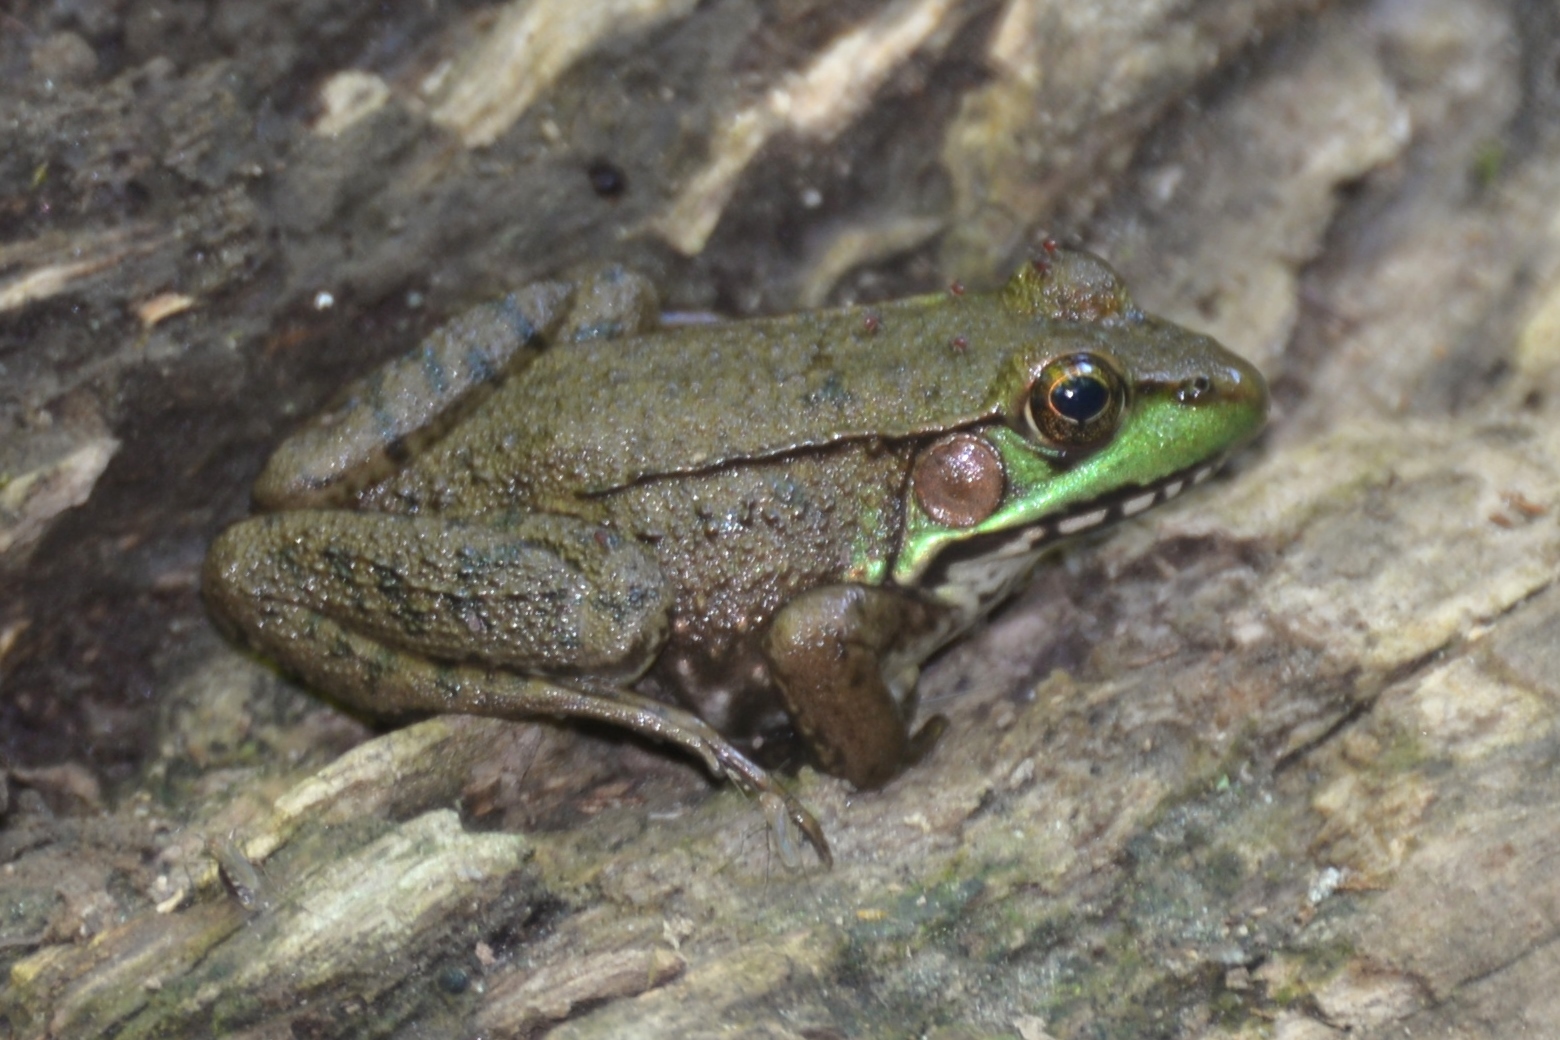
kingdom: Animalia
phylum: Chordata
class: Amphibia
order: Anura
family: Ranidae
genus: Lithobates
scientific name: Lithobates clamitans
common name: Green frog
